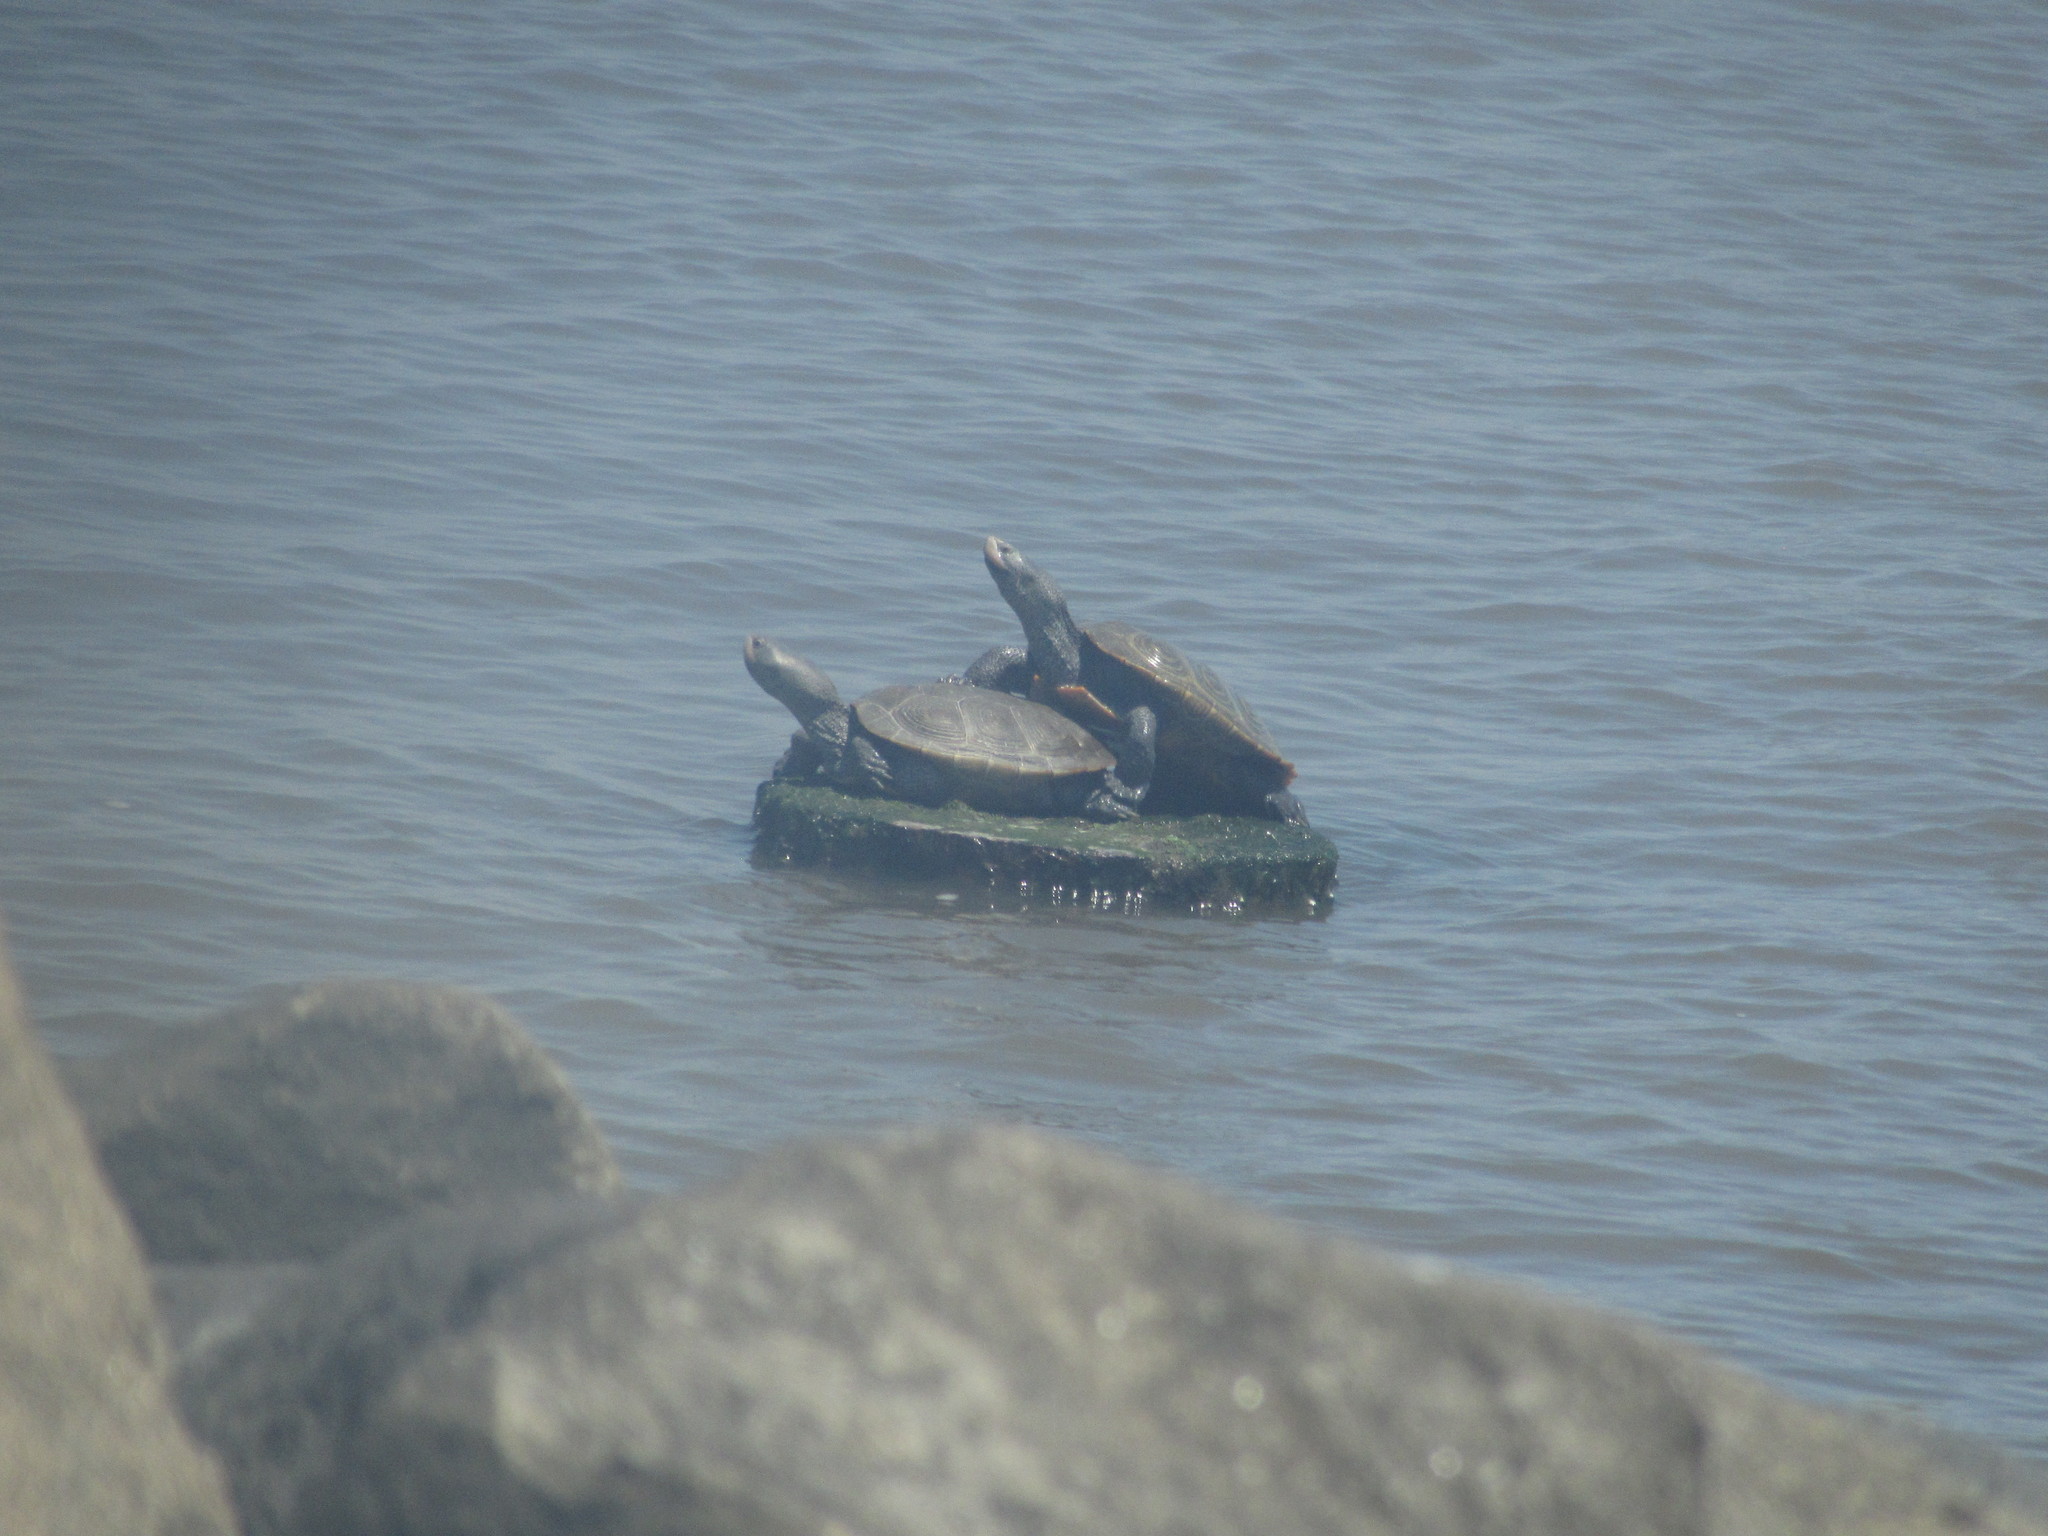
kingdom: Animalia
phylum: Chordata
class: Testudines
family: Emydidae
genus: Malaclemys
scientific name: Malaclemys terrapin
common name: Diamondback terrapin
